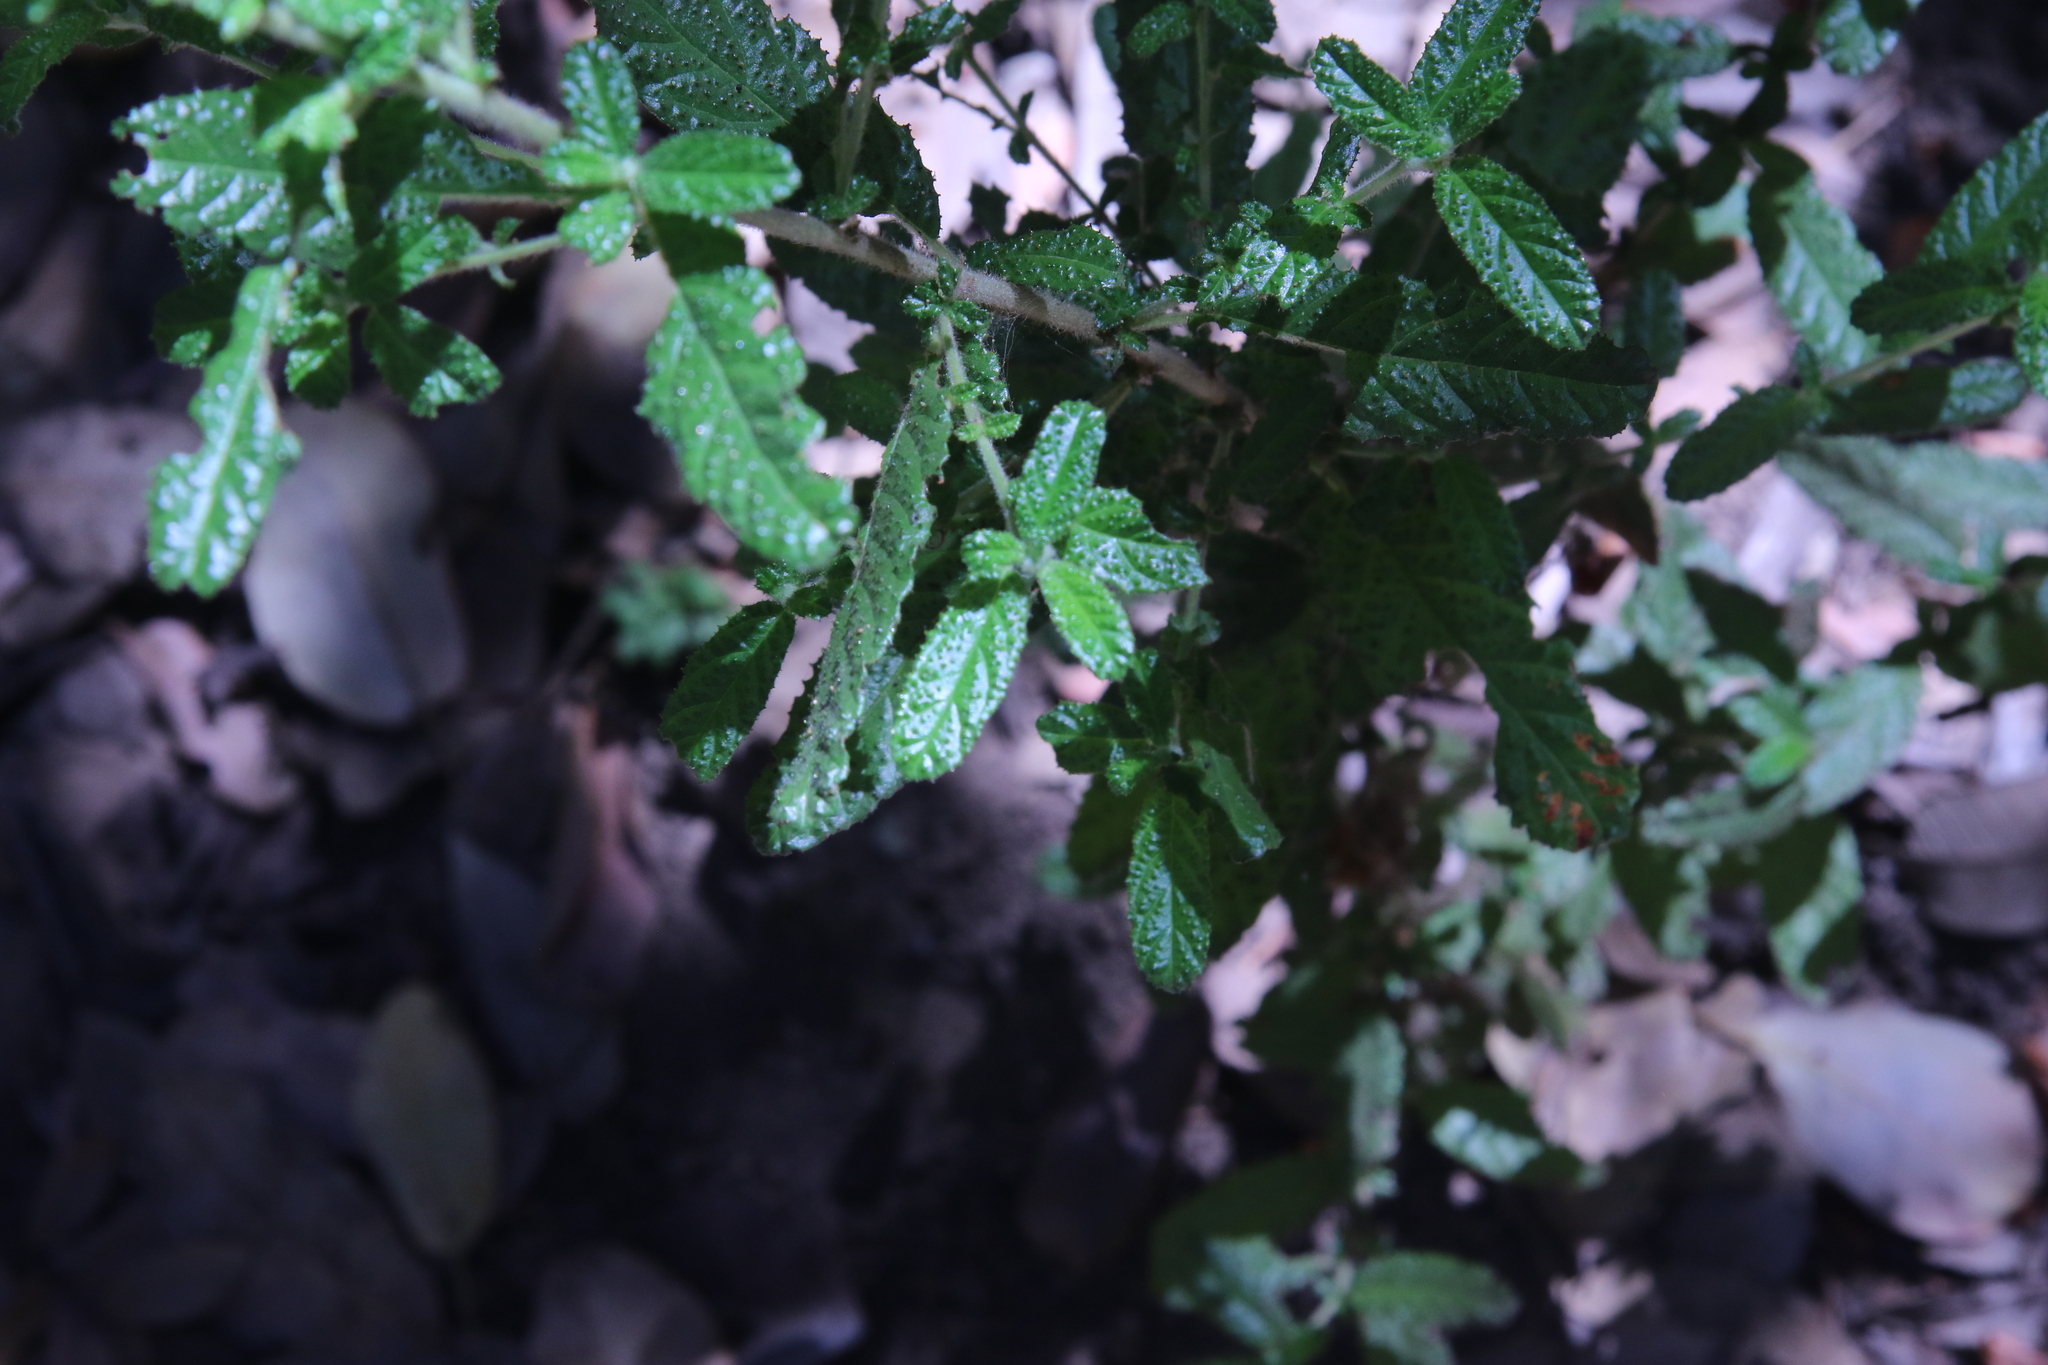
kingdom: Plantae
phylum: Tracheophyta
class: Magnoliopsida
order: Rosales
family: Rhamnaceae
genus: Ceanothus
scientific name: Ceanothus papillosus
